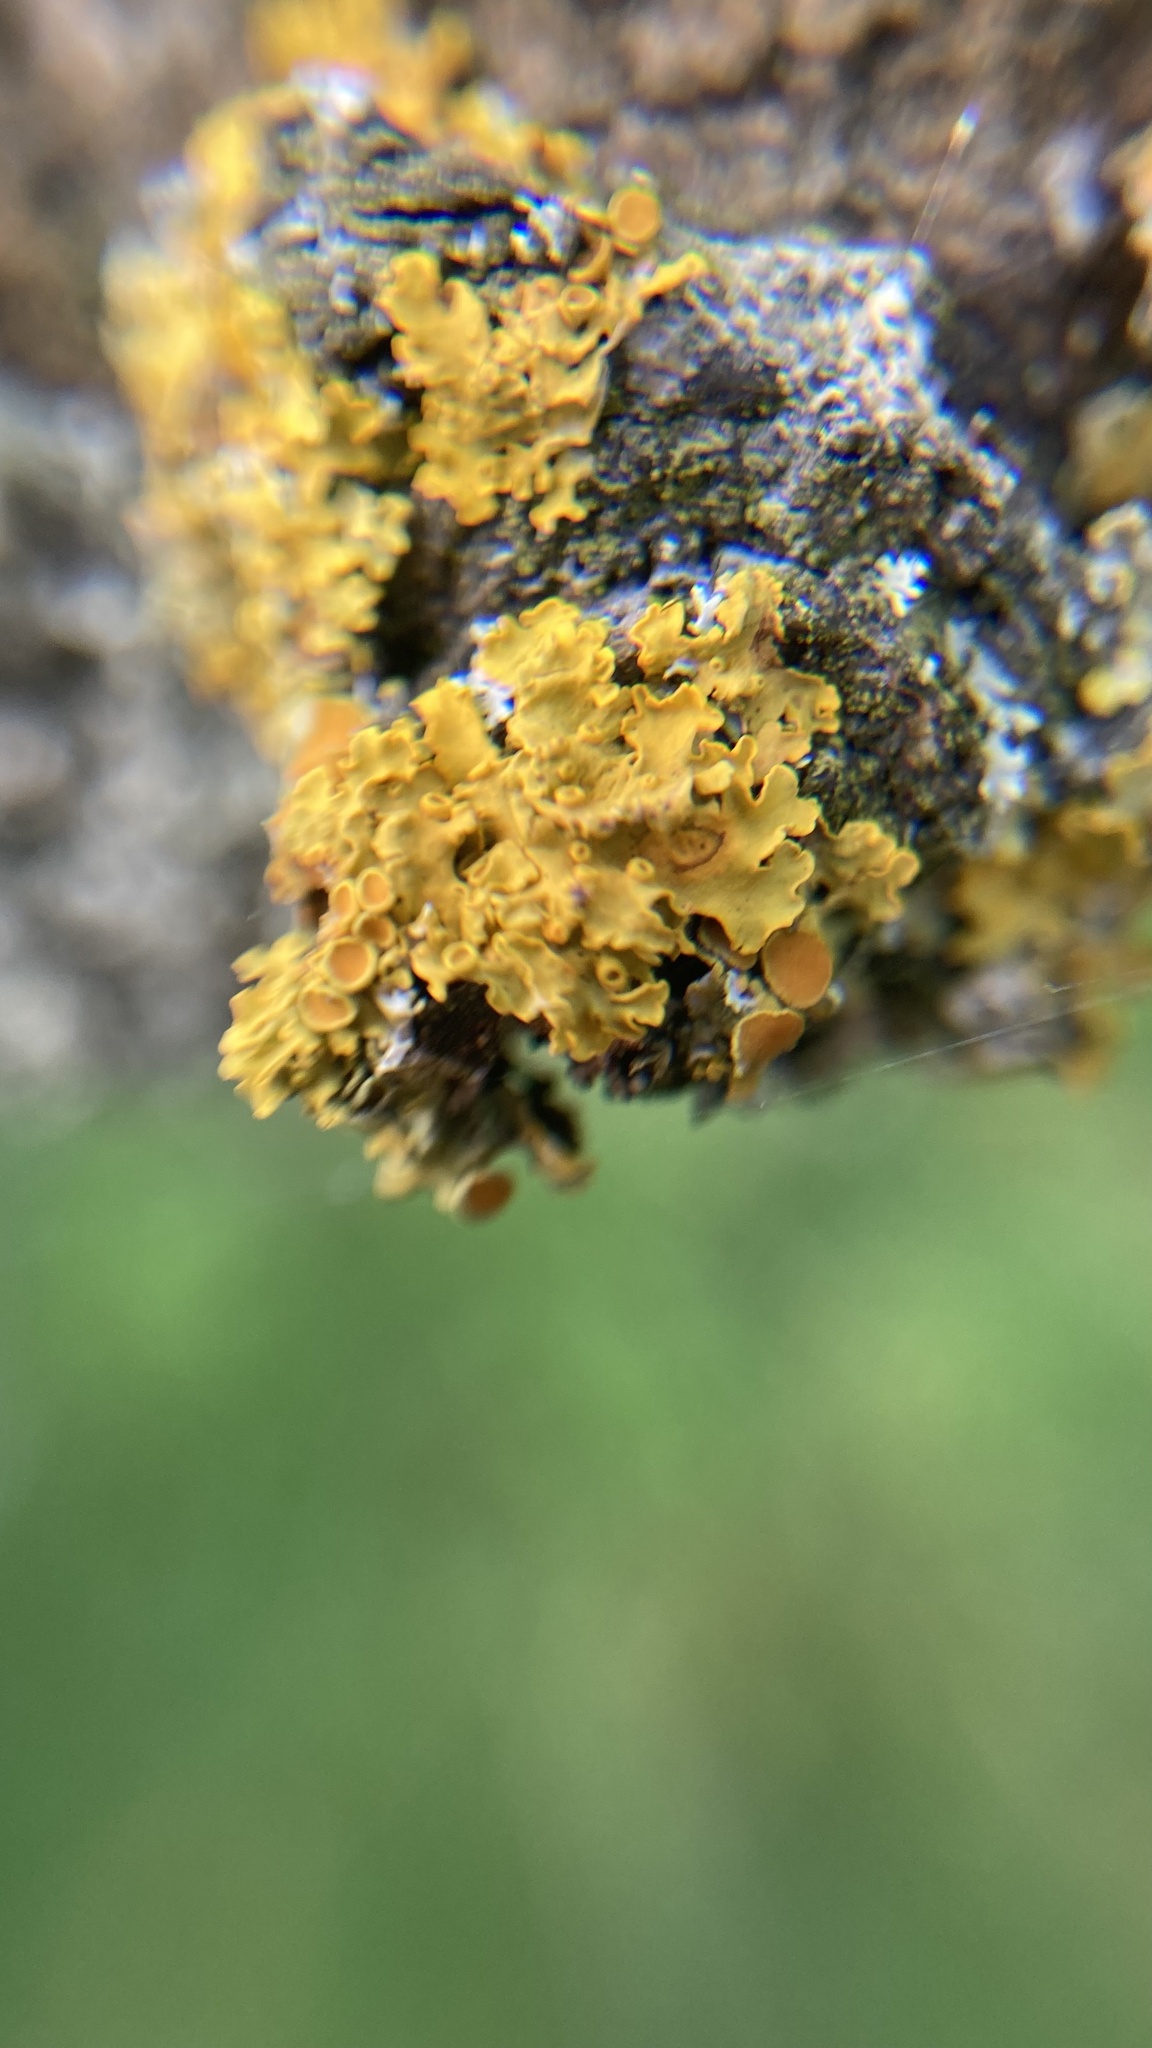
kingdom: Fungi
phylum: Ascomycota
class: Lecanoromycetes
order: Teloschistales
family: Teloschistaceae
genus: Xanthoria
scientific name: Xanthoria parietina
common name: Common orange lichen
